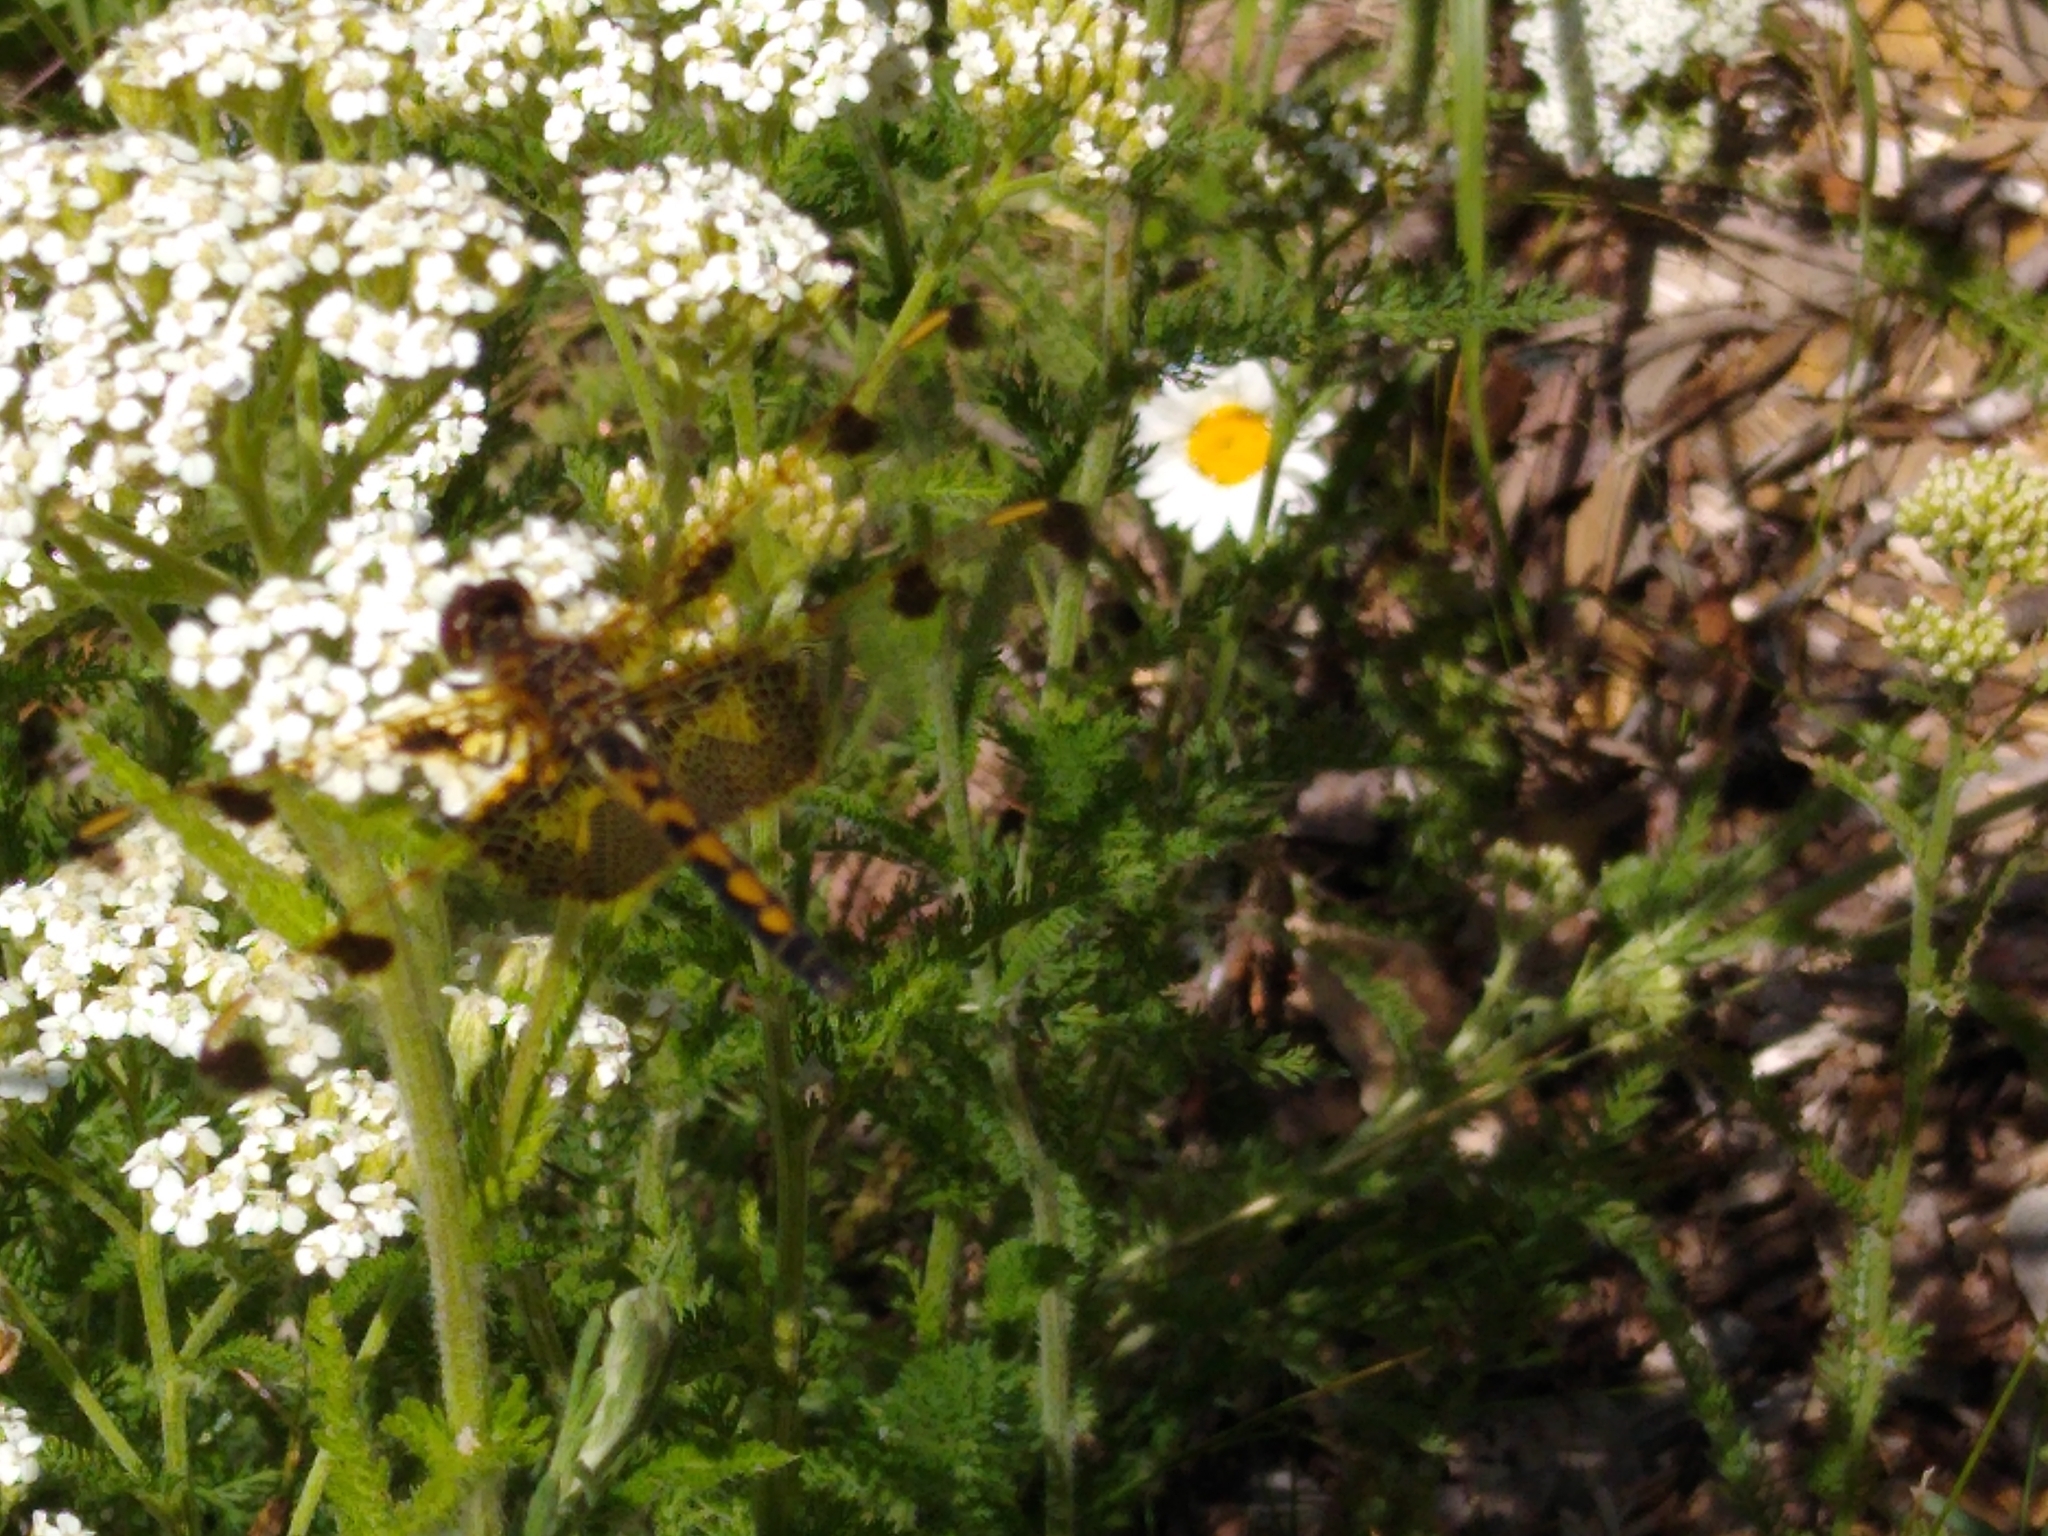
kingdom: Animalia
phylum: Arthropoda
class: Insecta
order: Odonata
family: Libellulidae
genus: Celithemis
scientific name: Celithemis elisa
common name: Calico pennant
